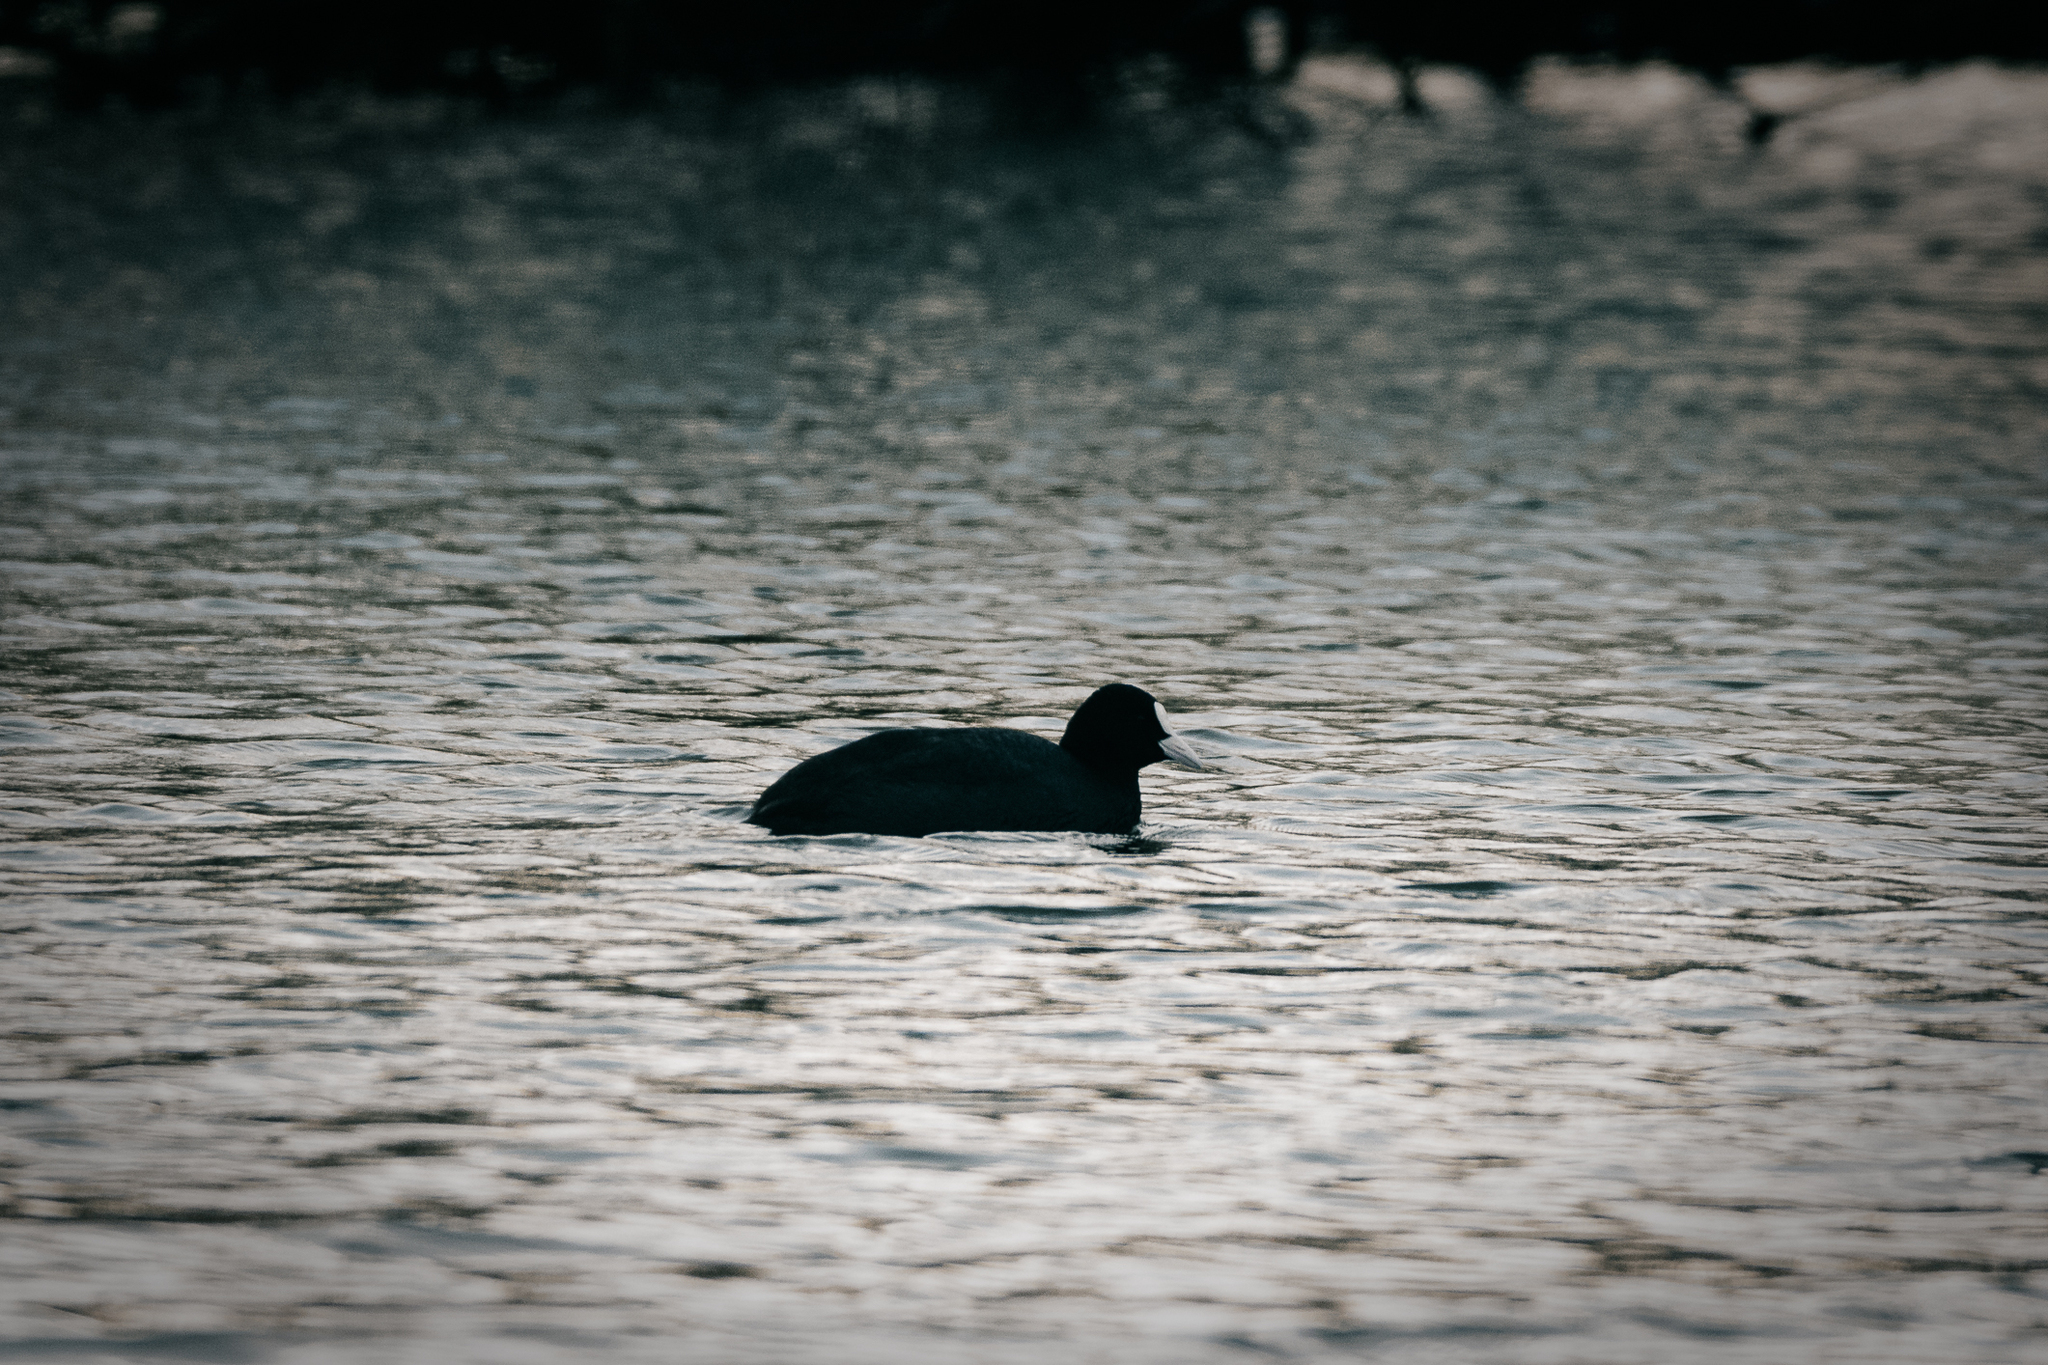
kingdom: Animalia
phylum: Chordata
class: Aves
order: Gruiformes
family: Rallidae
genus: Fulica
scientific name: Fulica atra
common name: Eurasian coot
